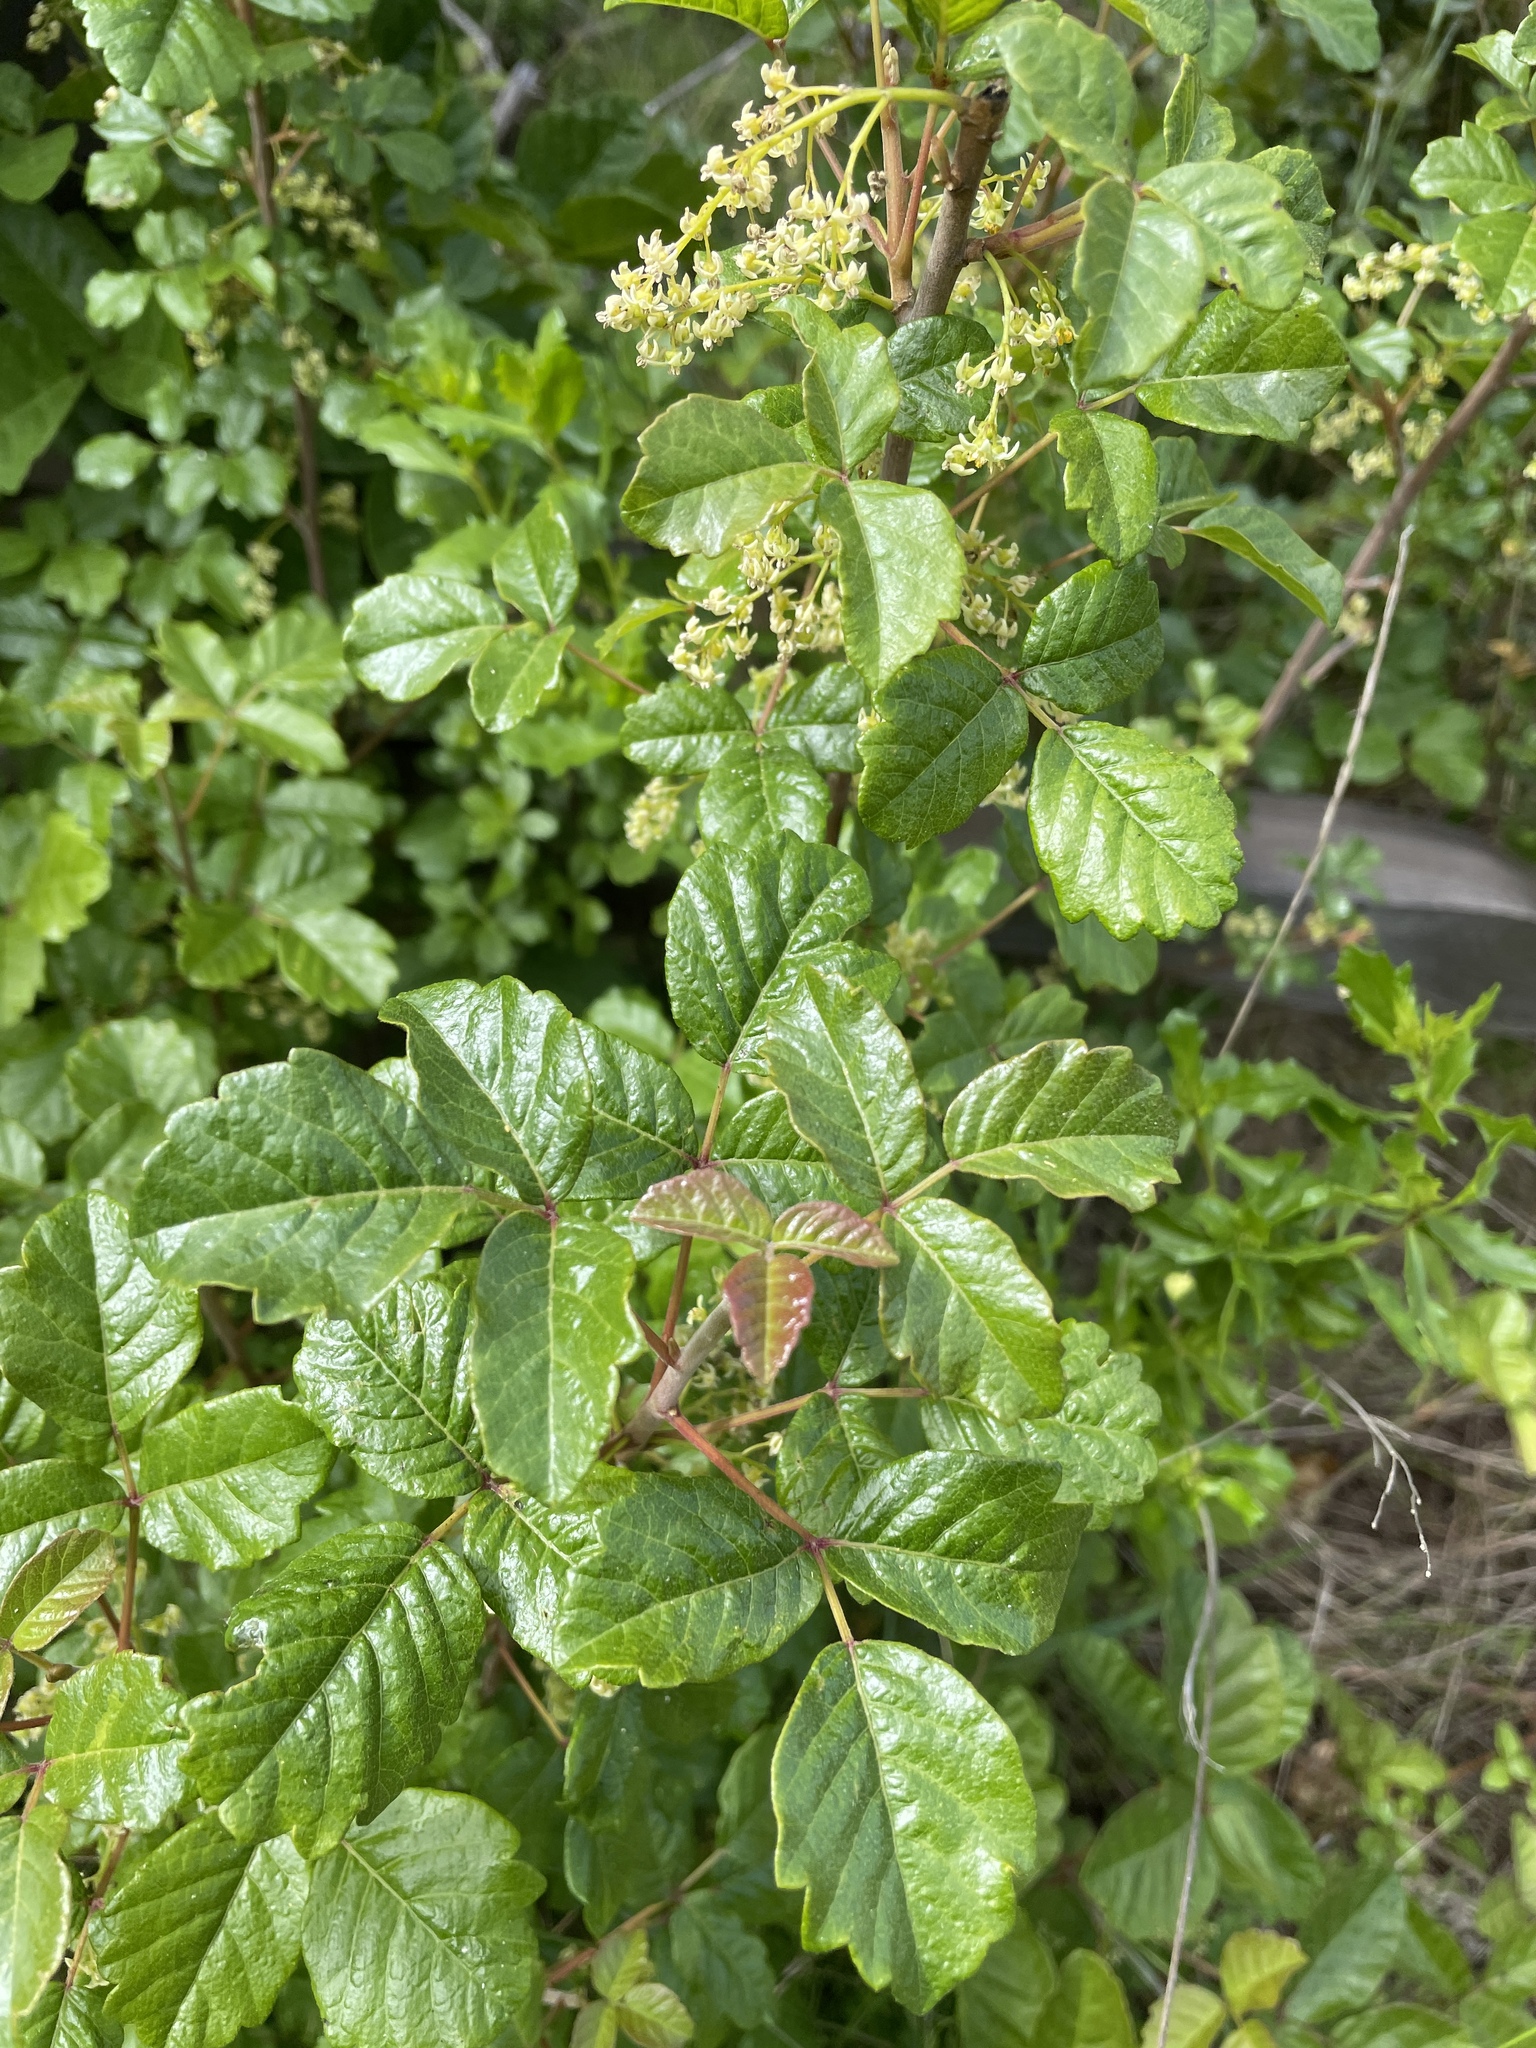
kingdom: Plantae
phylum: Tracheophyta
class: Magnoliopsida
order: Sapindales
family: Anacardiaceae
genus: Toxicodendron
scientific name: Toxicodendron diversilobum
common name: Pacific poison-oak
